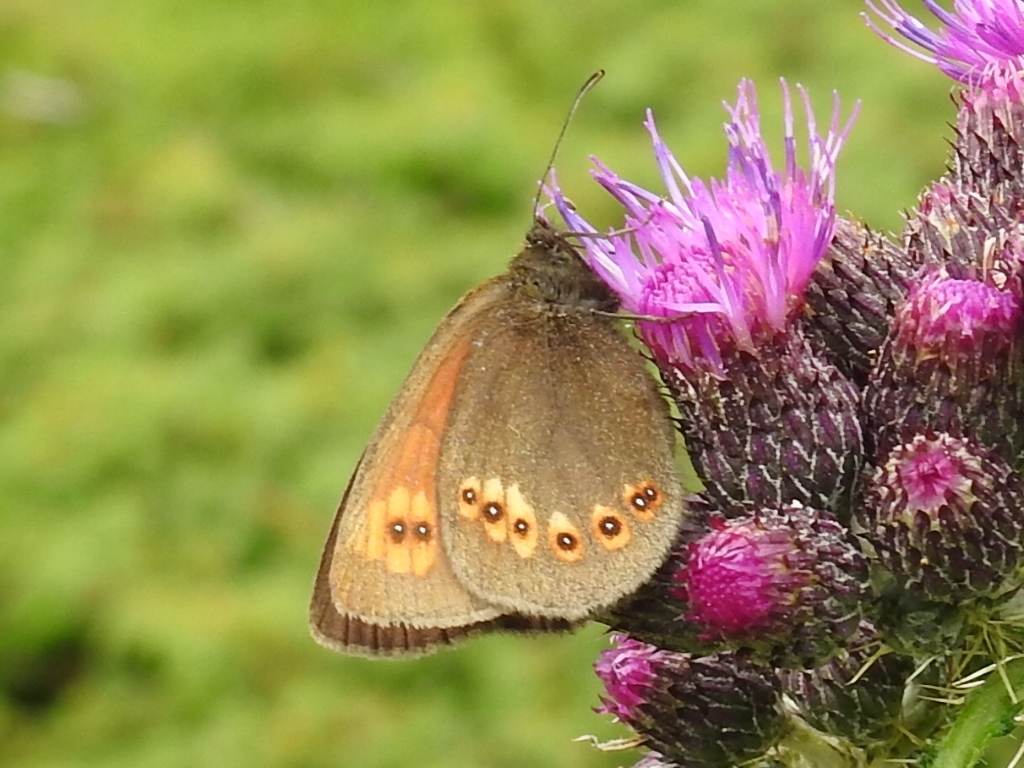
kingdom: Animalia
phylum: Arthropoda
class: Insecta
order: Lepidoptera
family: Nymphalidae
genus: Erebia
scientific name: Erebia alberganus
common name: Almond-eyed ringlet
